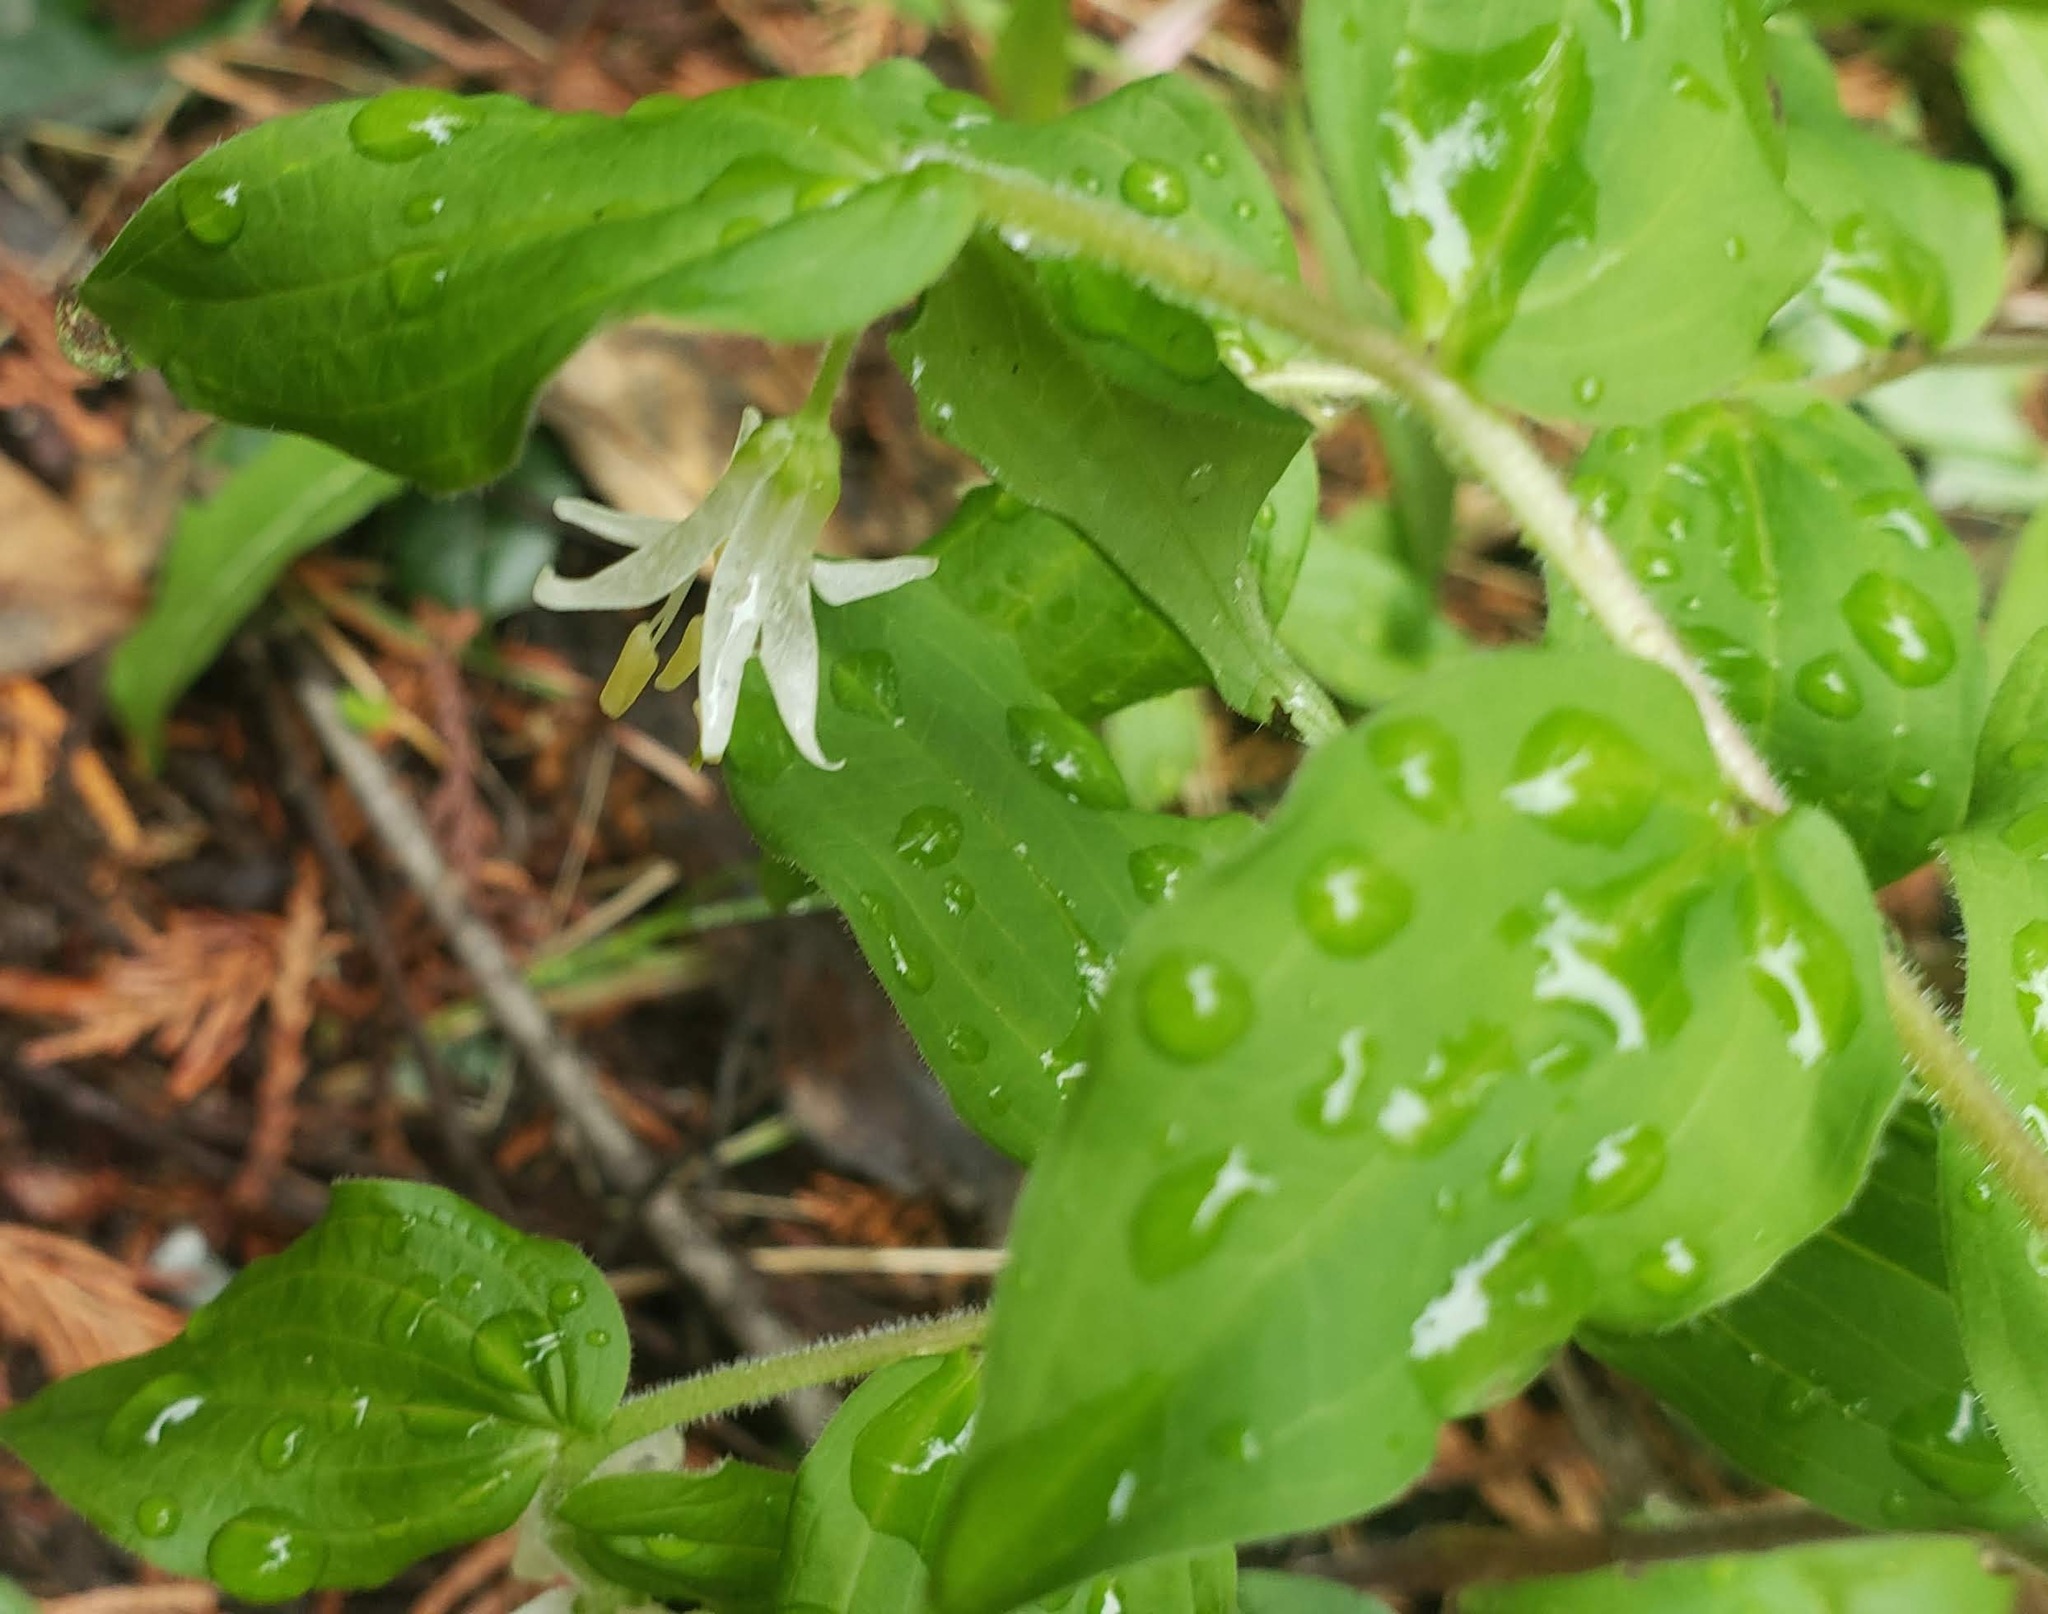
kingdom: Plantae
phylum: Tracheophyta
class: Liliopsida
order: Liliales
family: Liliaceae
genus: Prosartes
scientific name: Prosartes trachycarpa
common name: Rough-fruit fairy-bells
